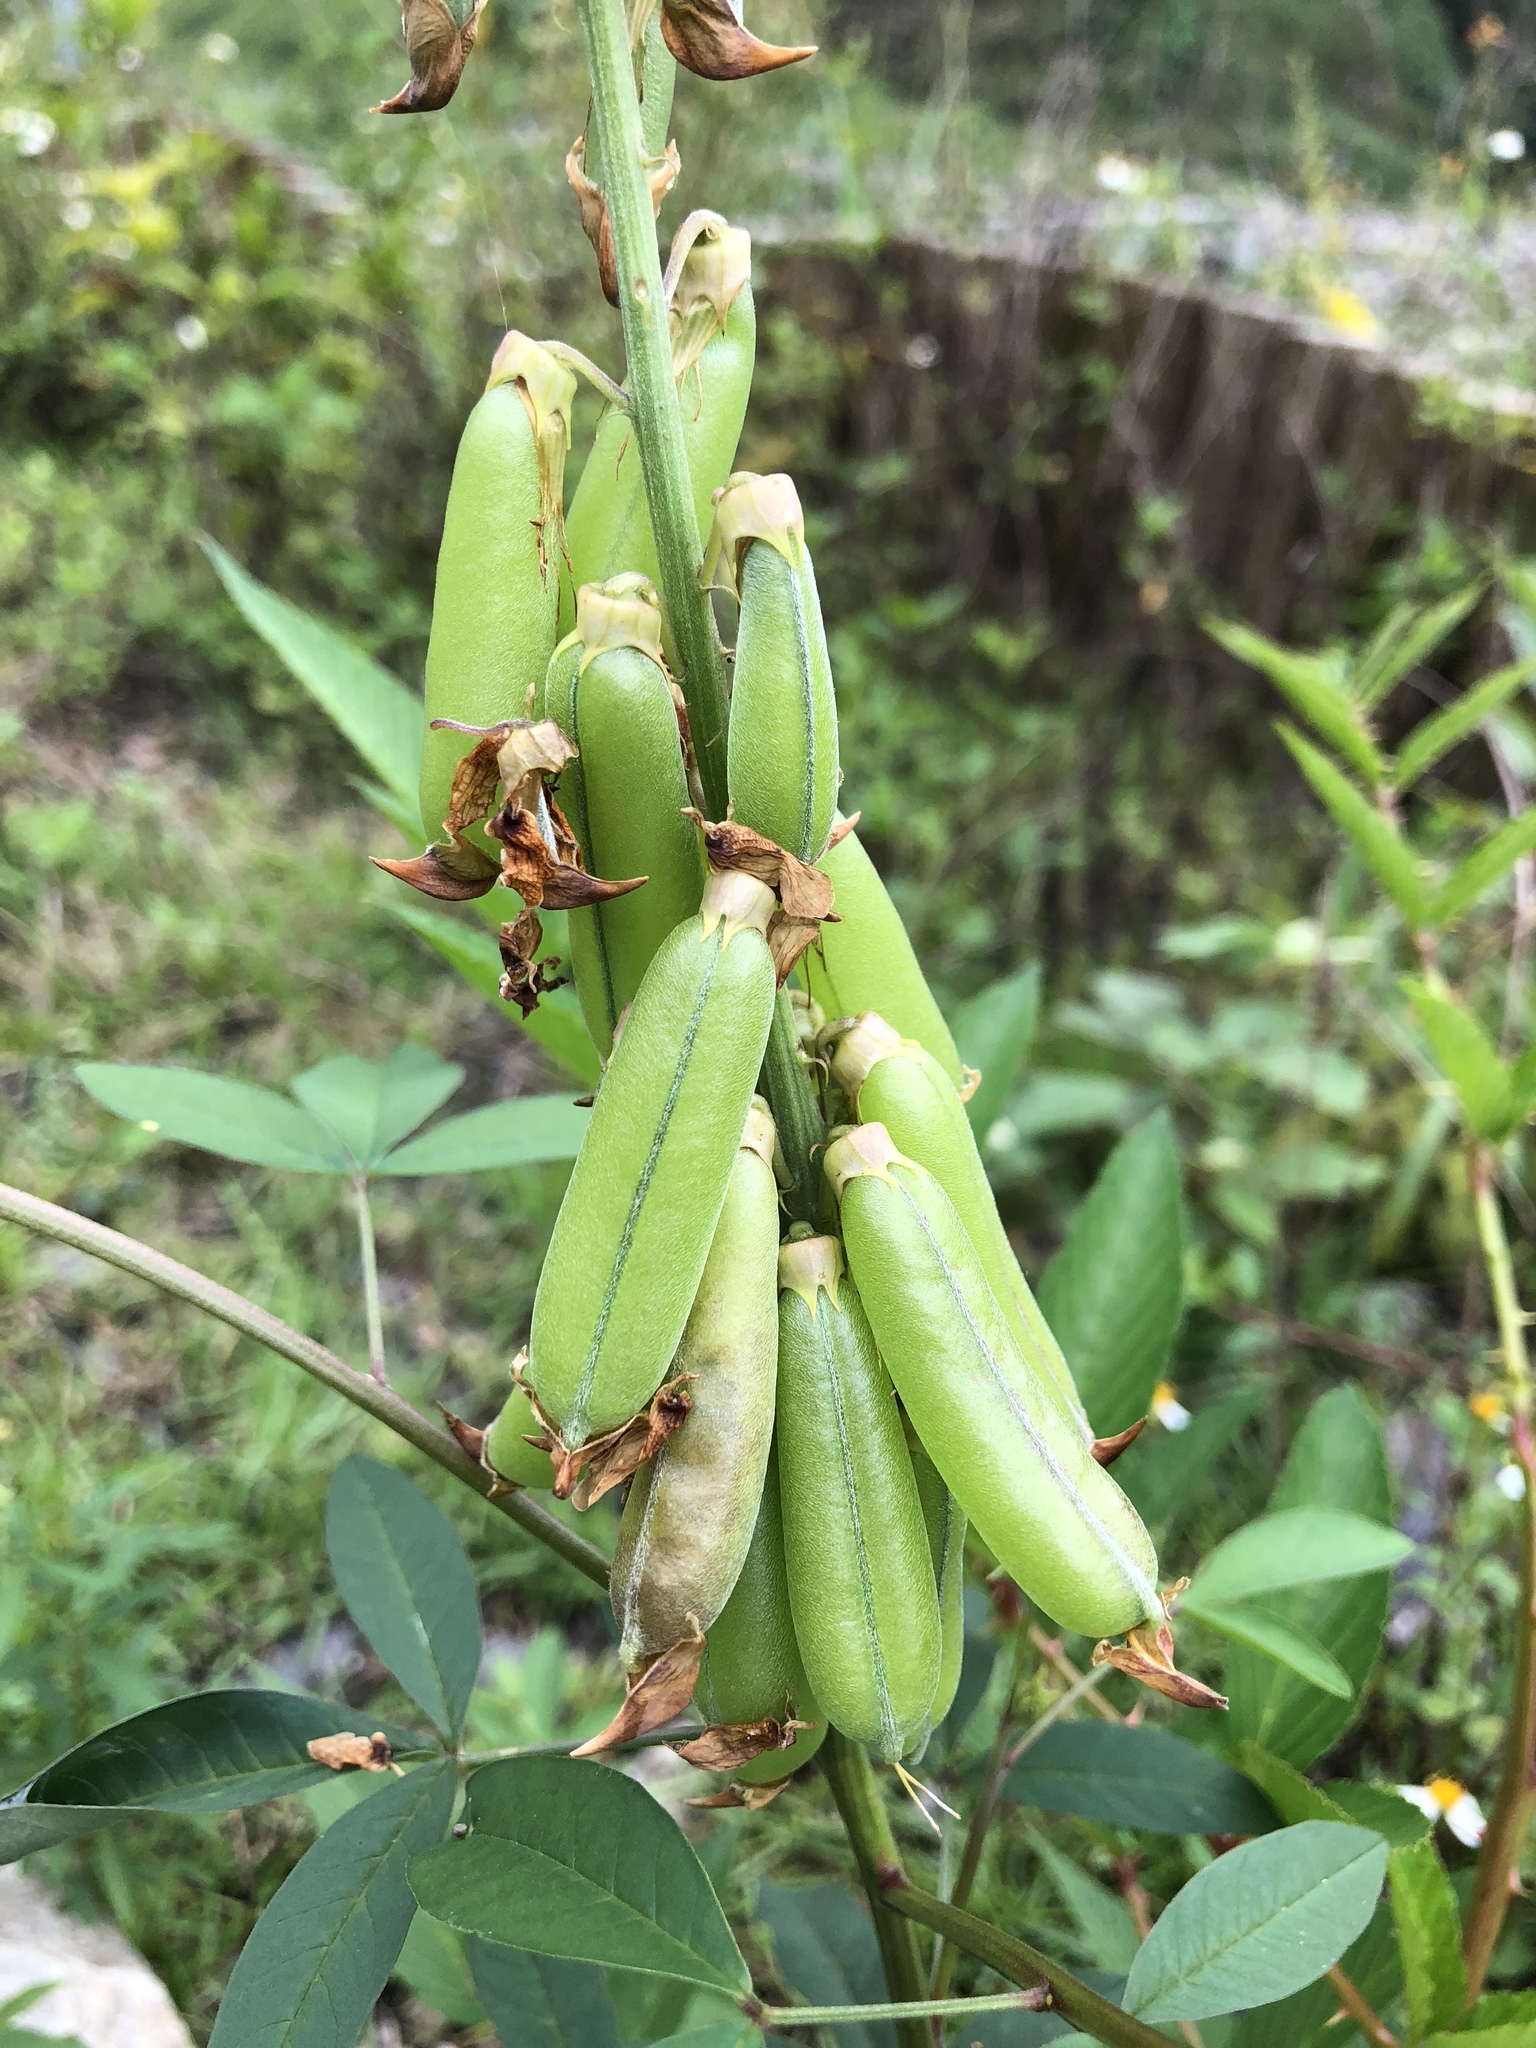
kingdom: Plantae
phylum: Tracheophyta
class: Magnoliopsida
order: Fabales
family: Fabaceae
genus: Crotalaria
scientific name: Crotalaria trichotoma
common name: West indian rattlebox
